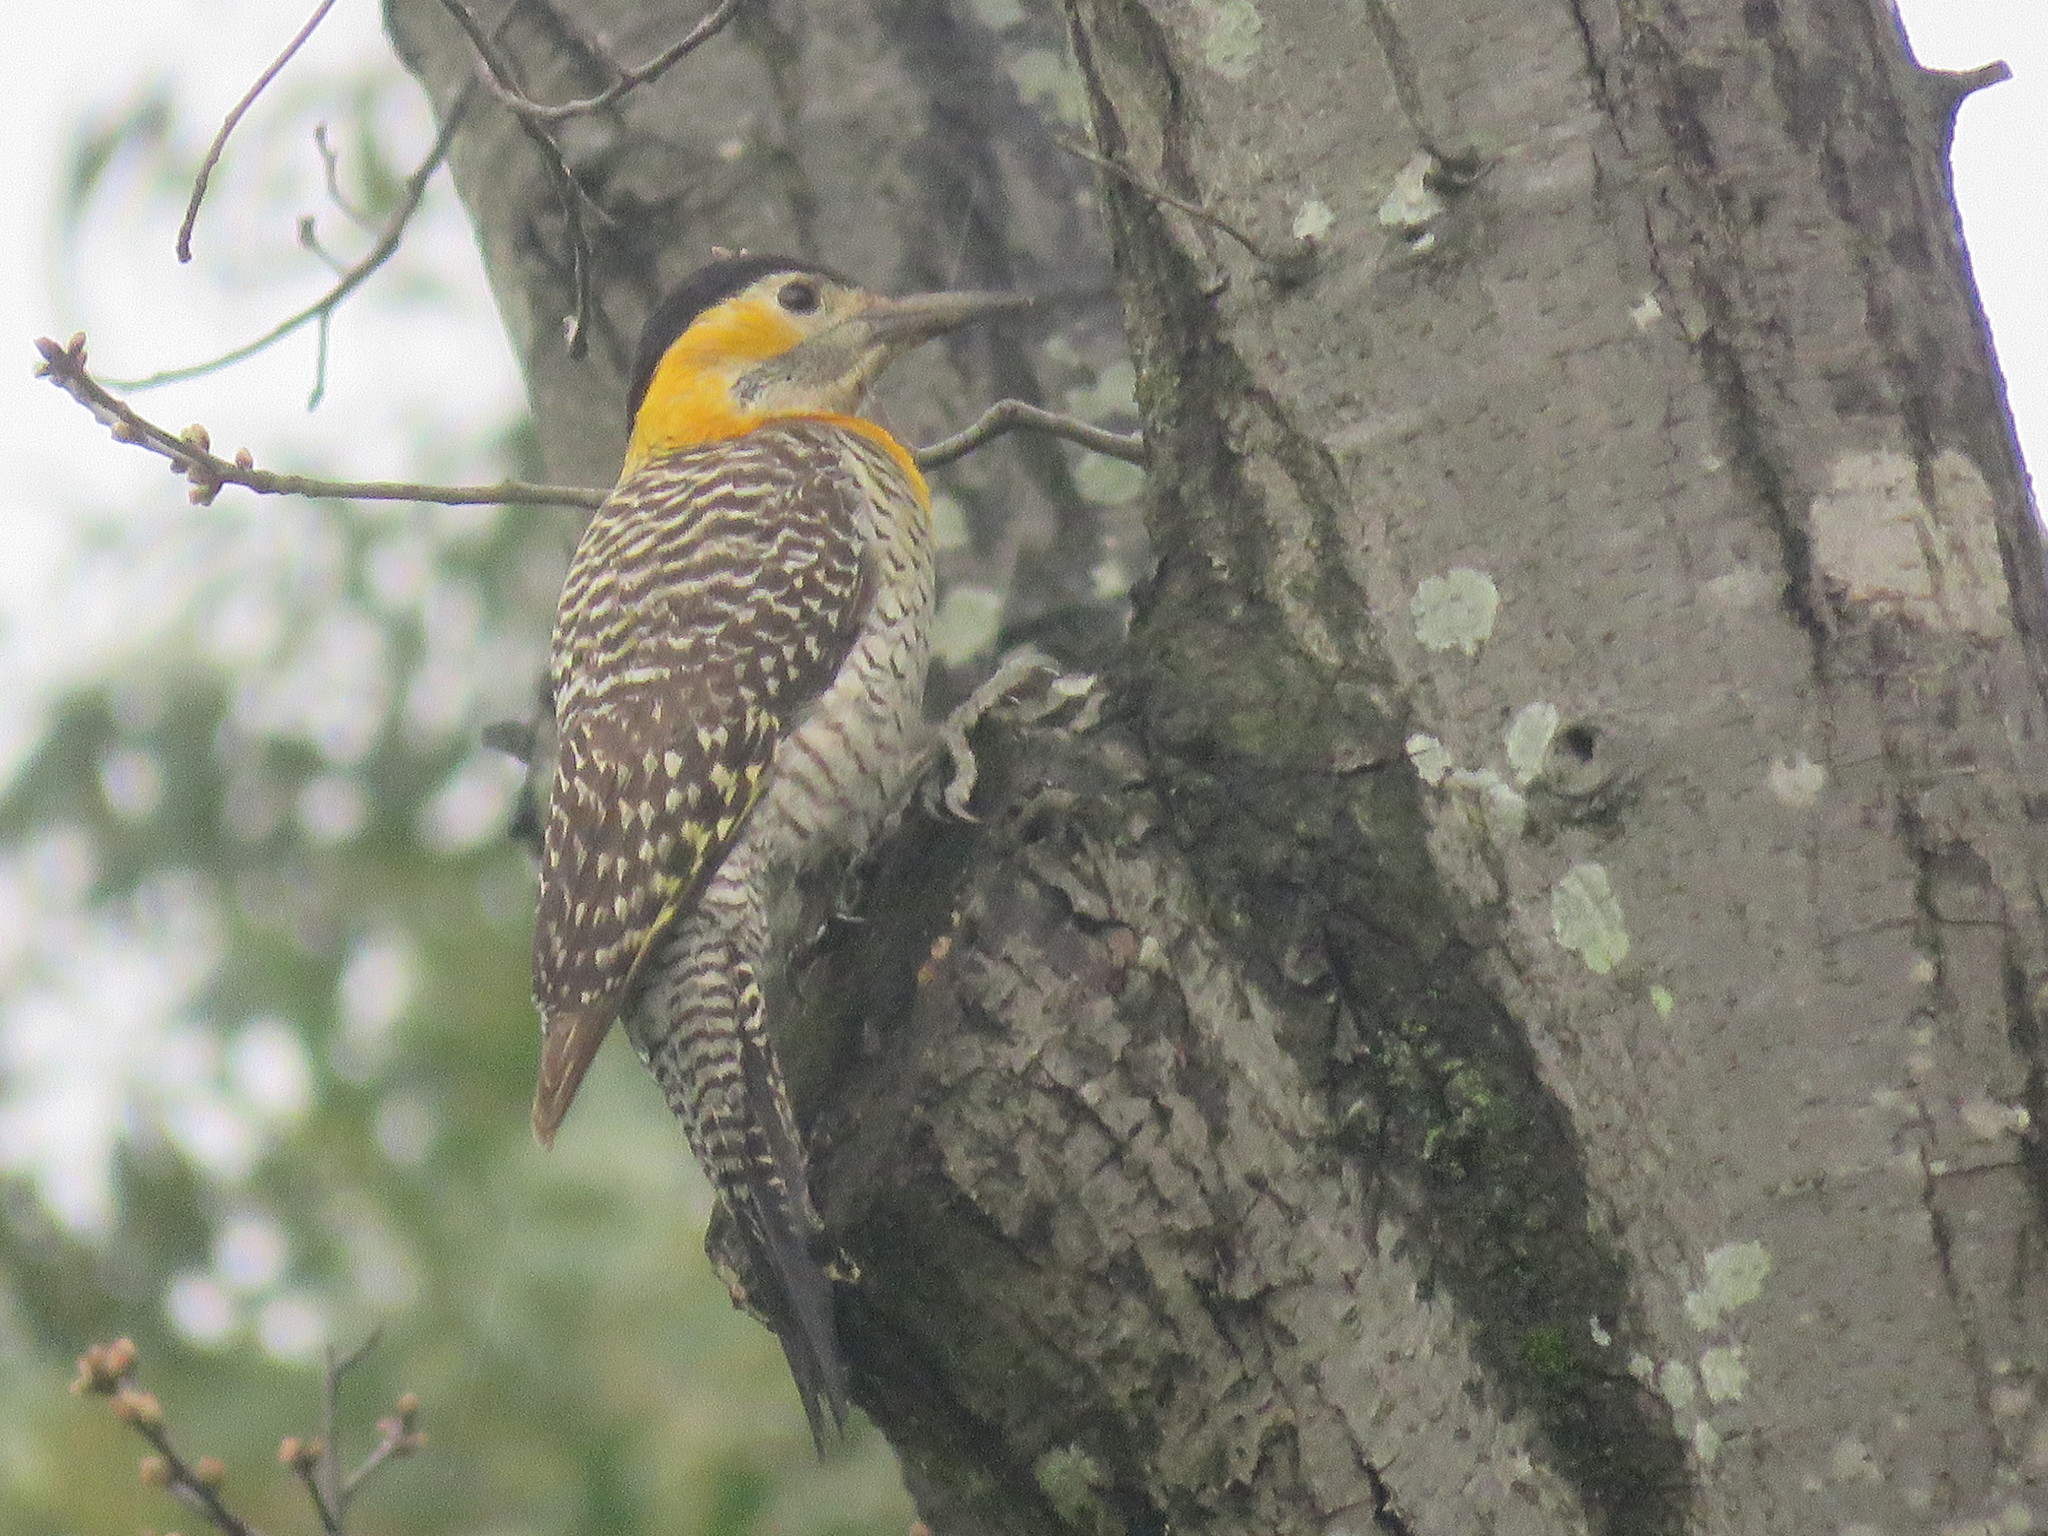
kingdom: Animalia
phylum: Chordata
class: Aves
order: Piciformes
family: Picidae
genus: Colaptes
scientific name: Colaptes campestris
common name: Campo flicker
